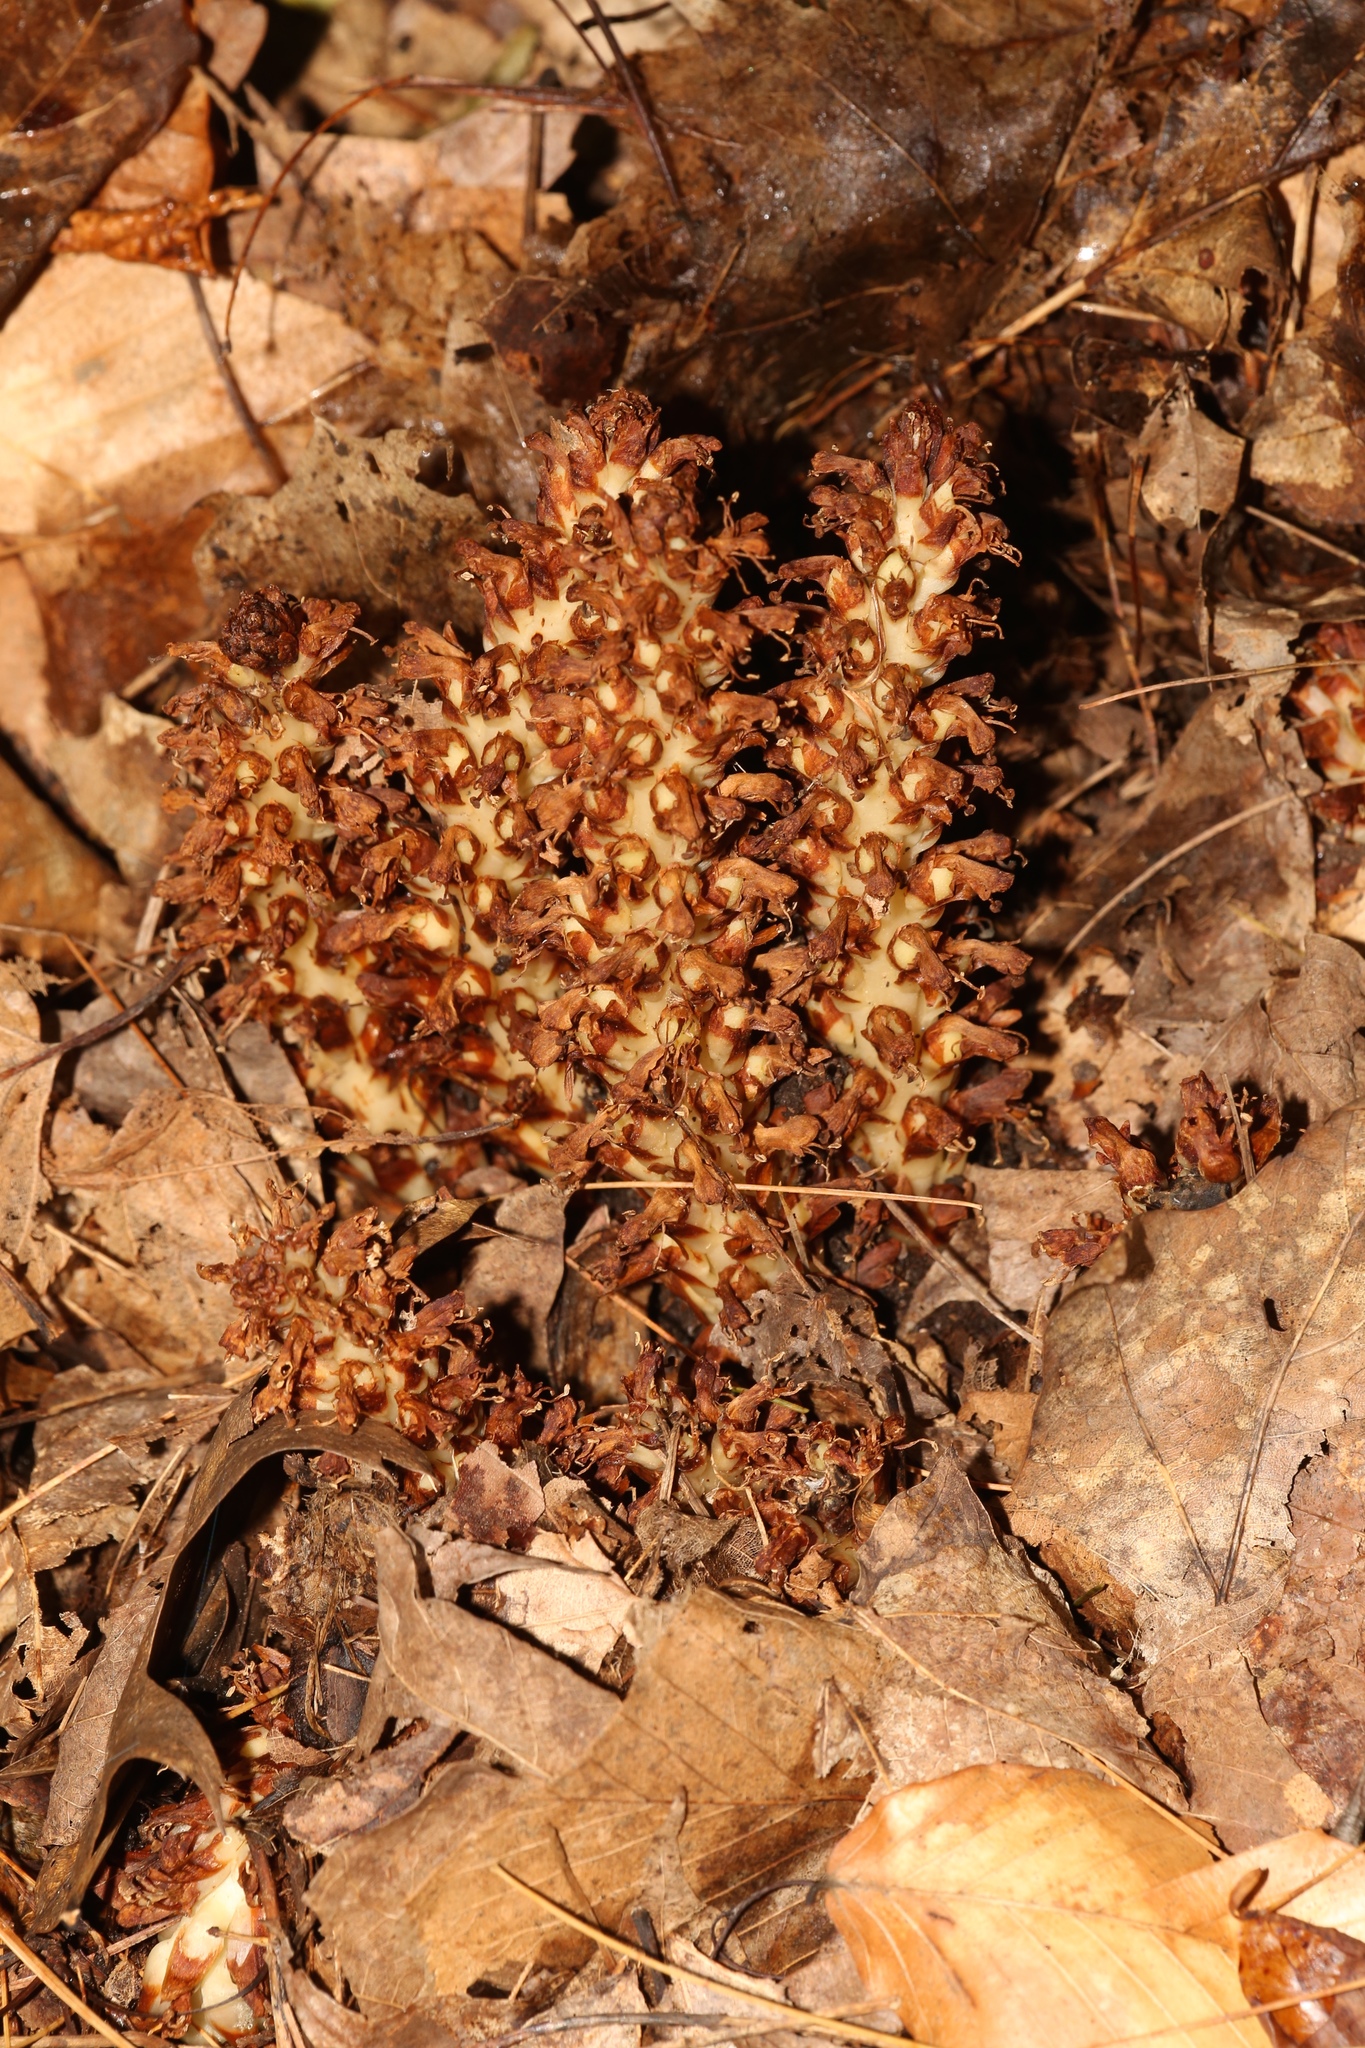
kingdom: Plantae
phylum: Tracheophyta
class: Magnoliopsida
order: Lamiales
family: Orobanchaceae
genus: Conopholis
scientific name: Conopholis americana
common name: American cancer-root
